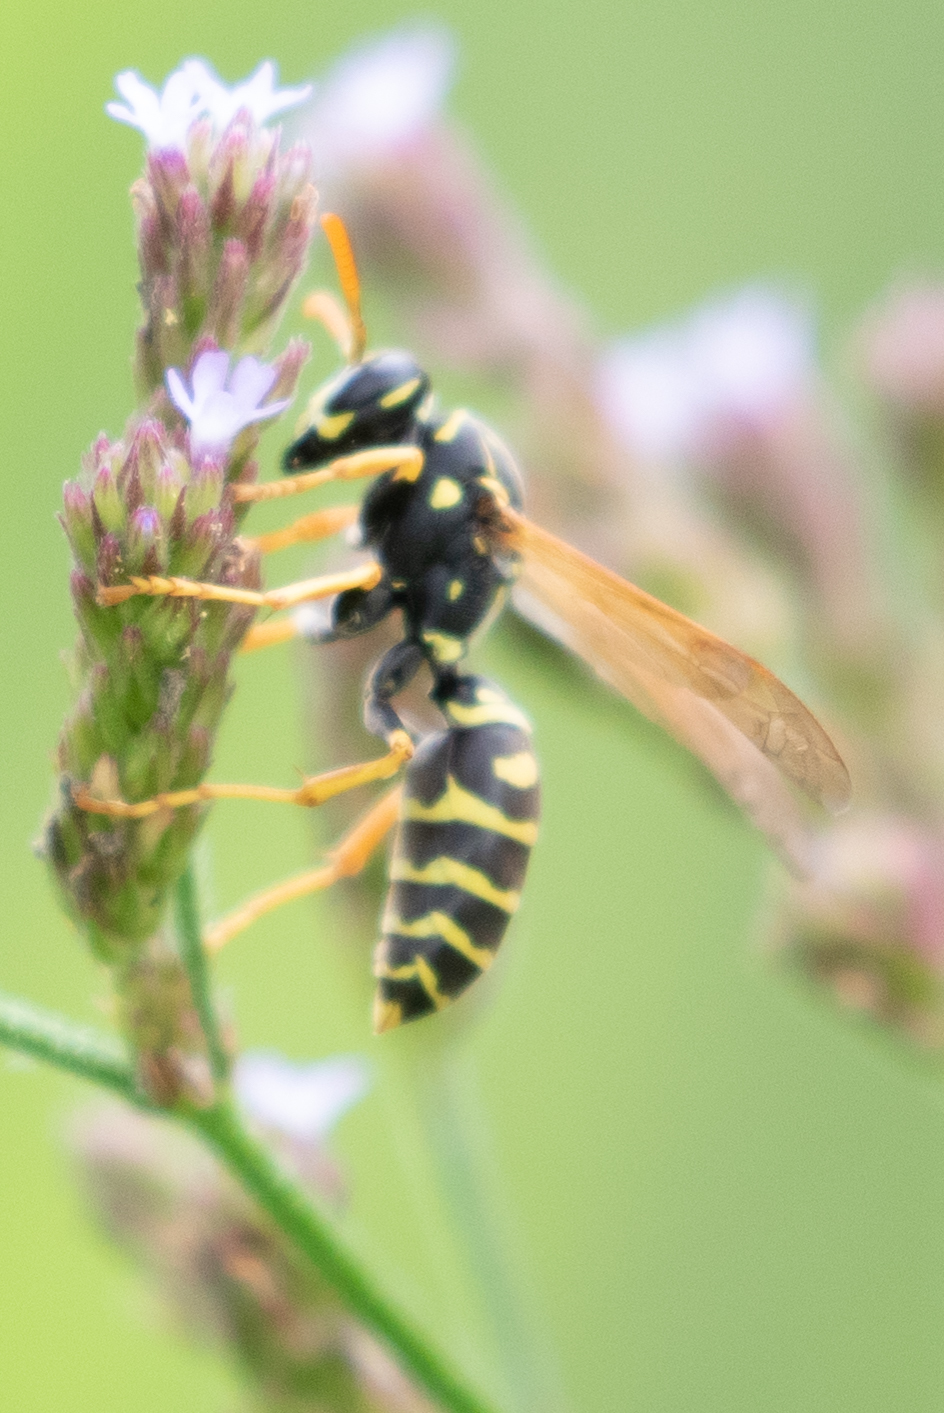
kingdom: Animalia
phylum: Arthropoda
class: Insecta
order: Hymenoptera
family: Eumenidae
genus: Polistes
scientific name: Polistes dominula
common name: Paper wasp
